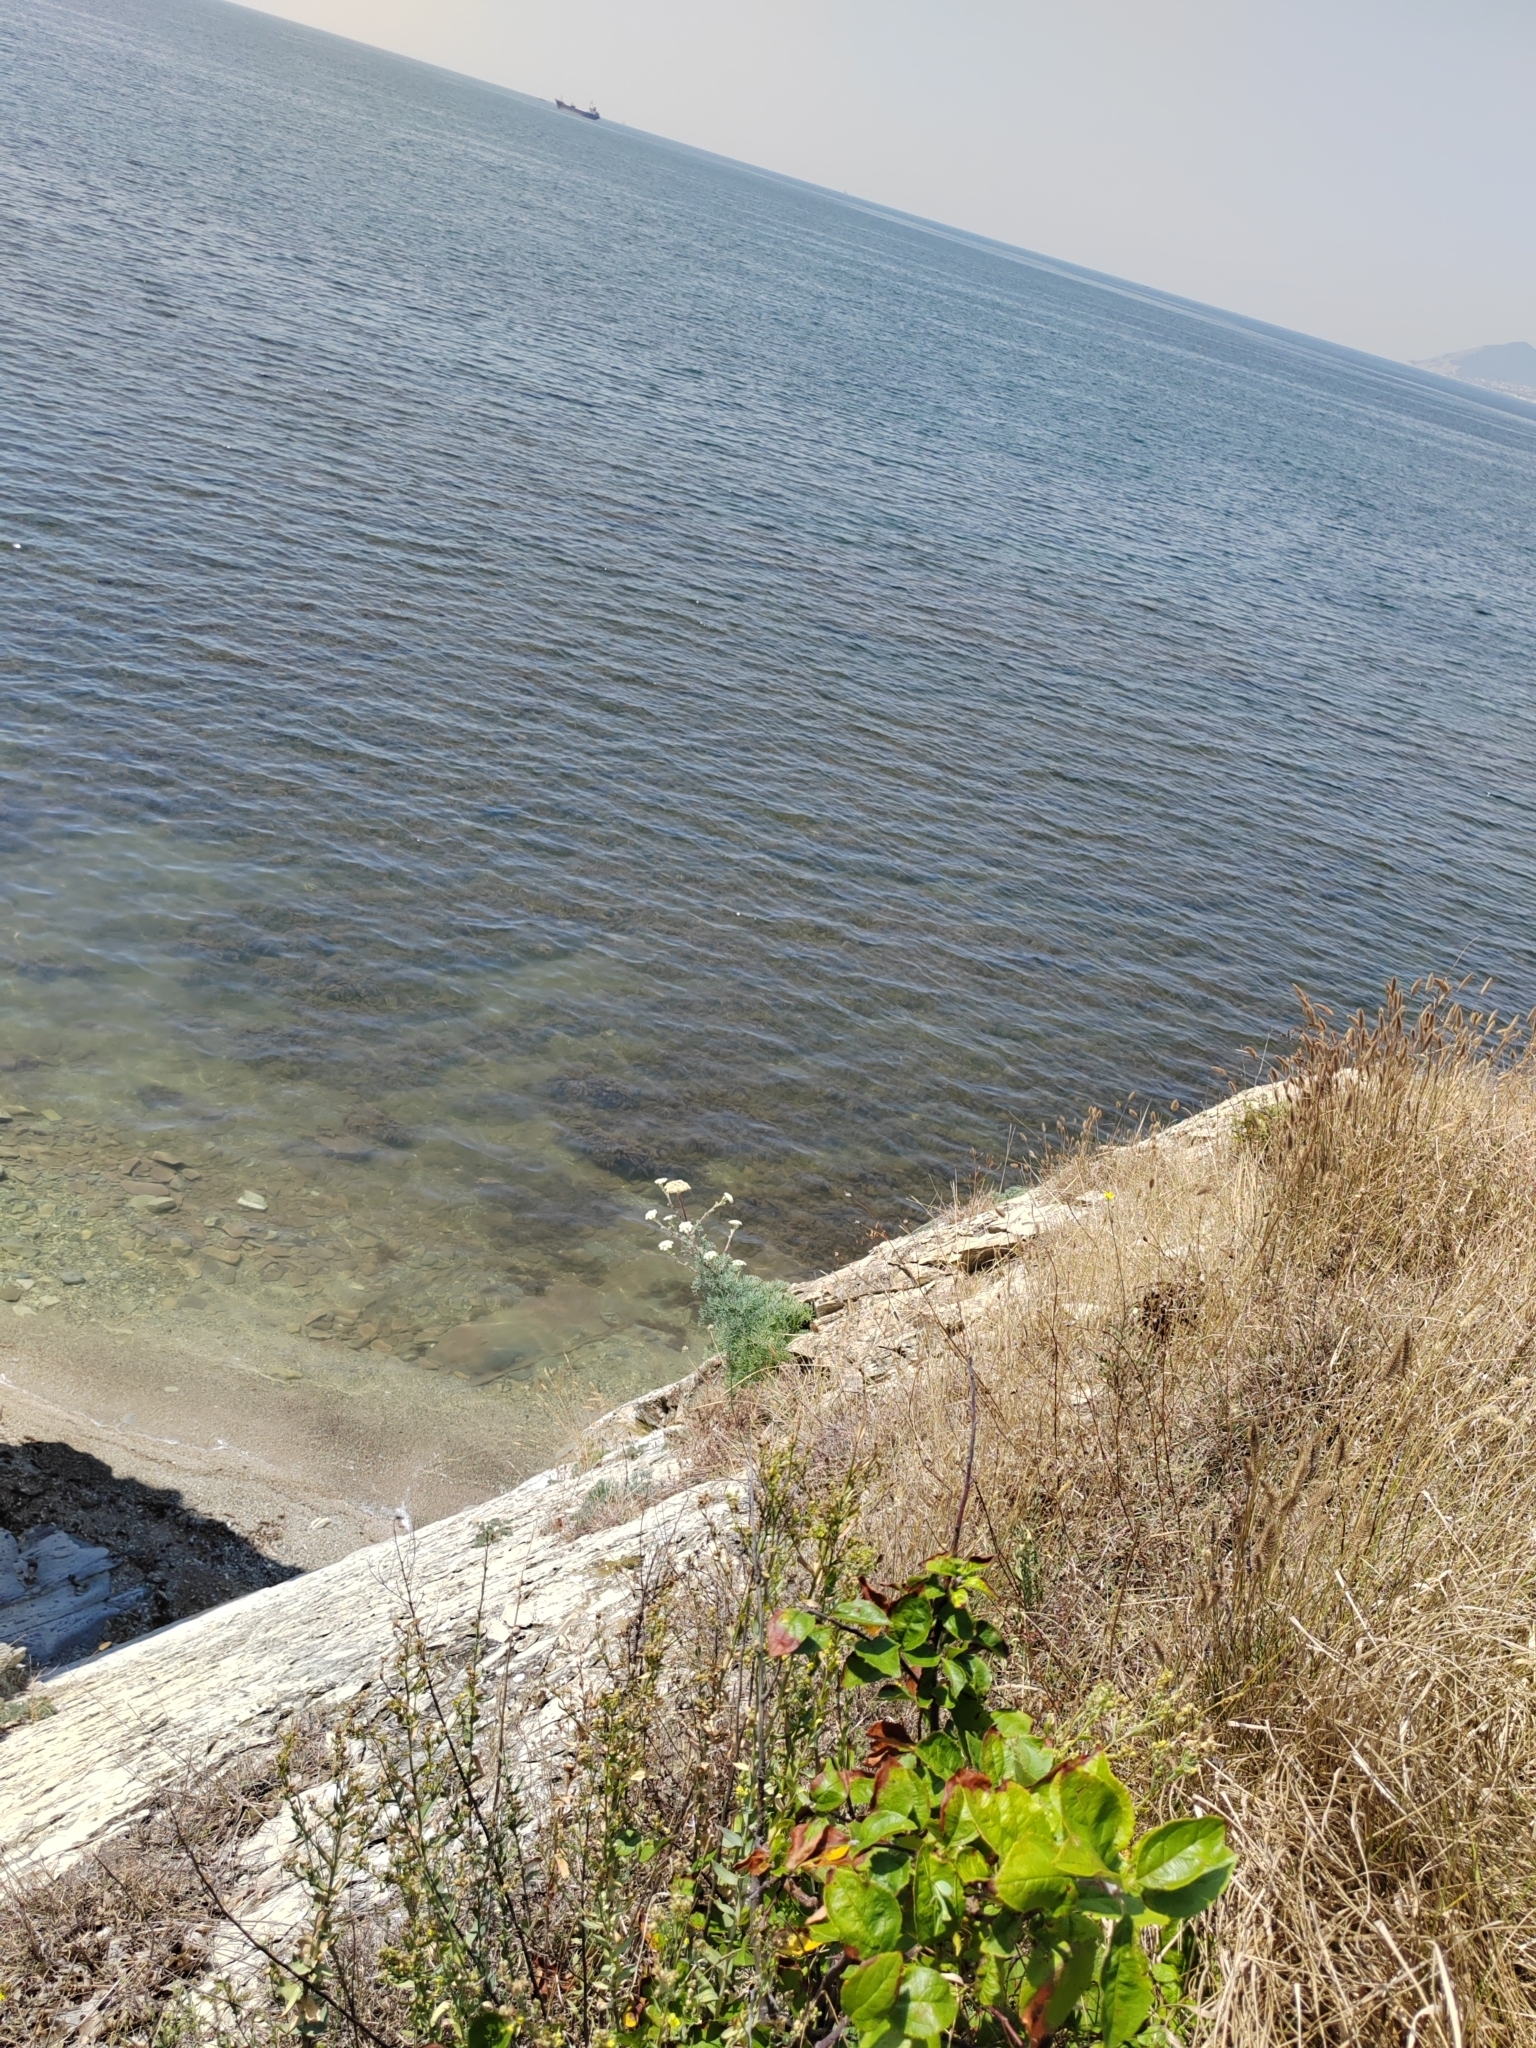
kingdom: Plantae
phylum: Tracheophyta
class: Magnoliopsida
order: Apiales
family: Apiaceae
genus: Seseli
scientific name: Seseli ponticum
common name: Pontic seseli
